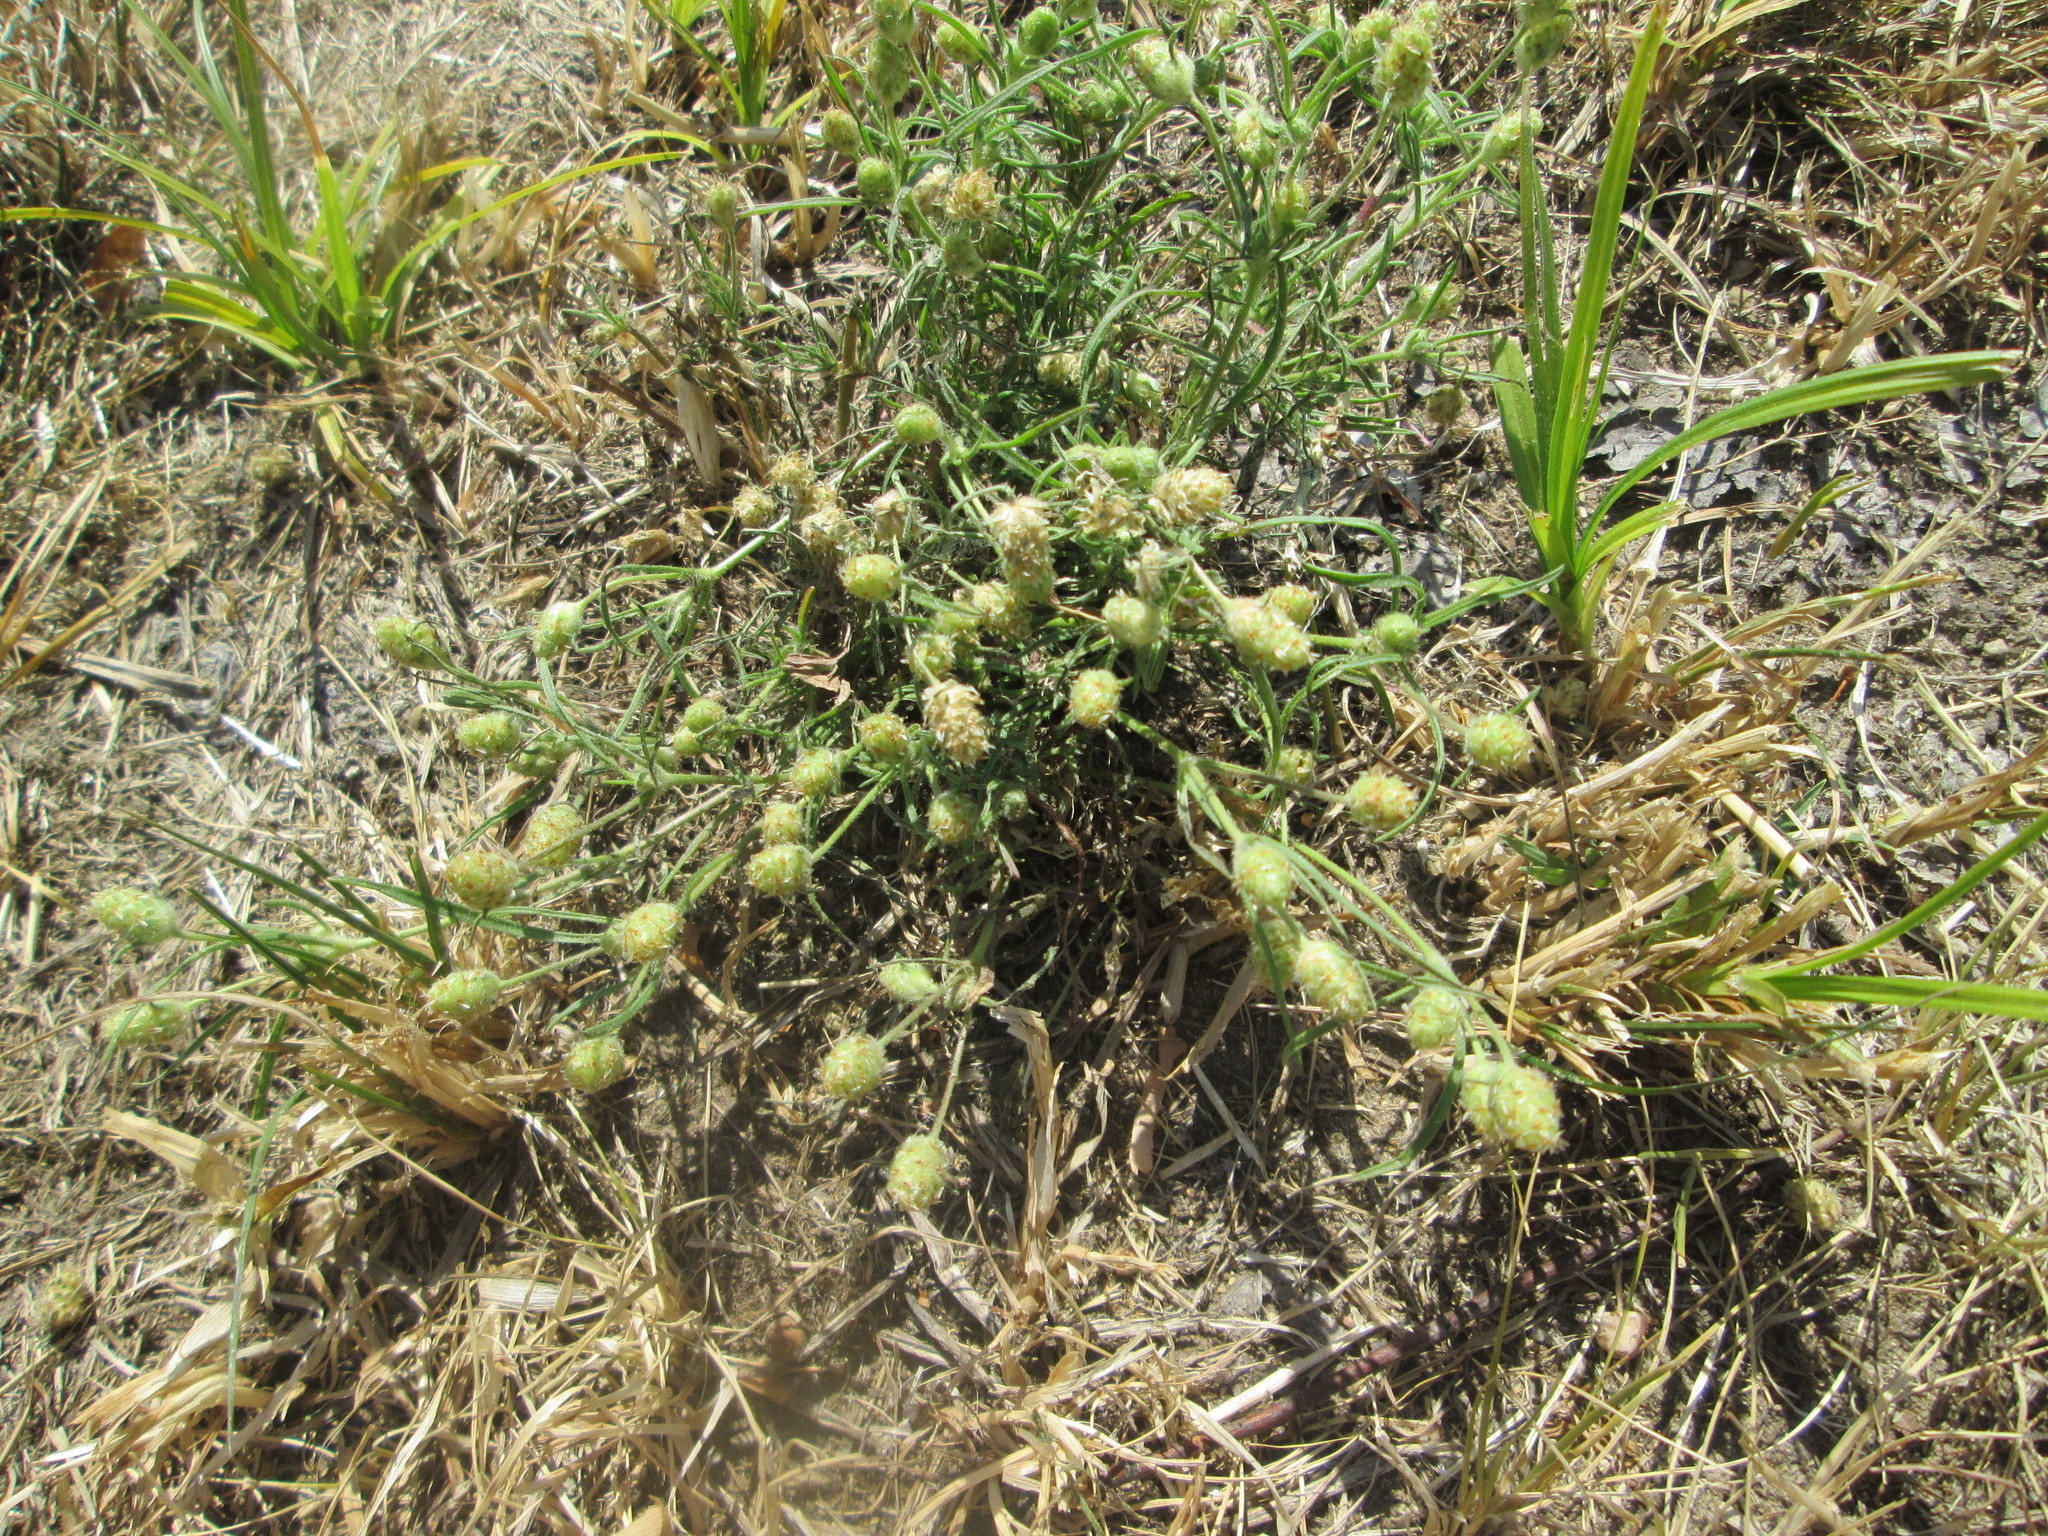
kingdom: Plantae
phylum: Tracheophyta
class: Magnoliopsida
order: Lamiales
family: Plantaginaceae
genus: Plantago
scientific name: Plantago arenaria
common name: Branched plantain
